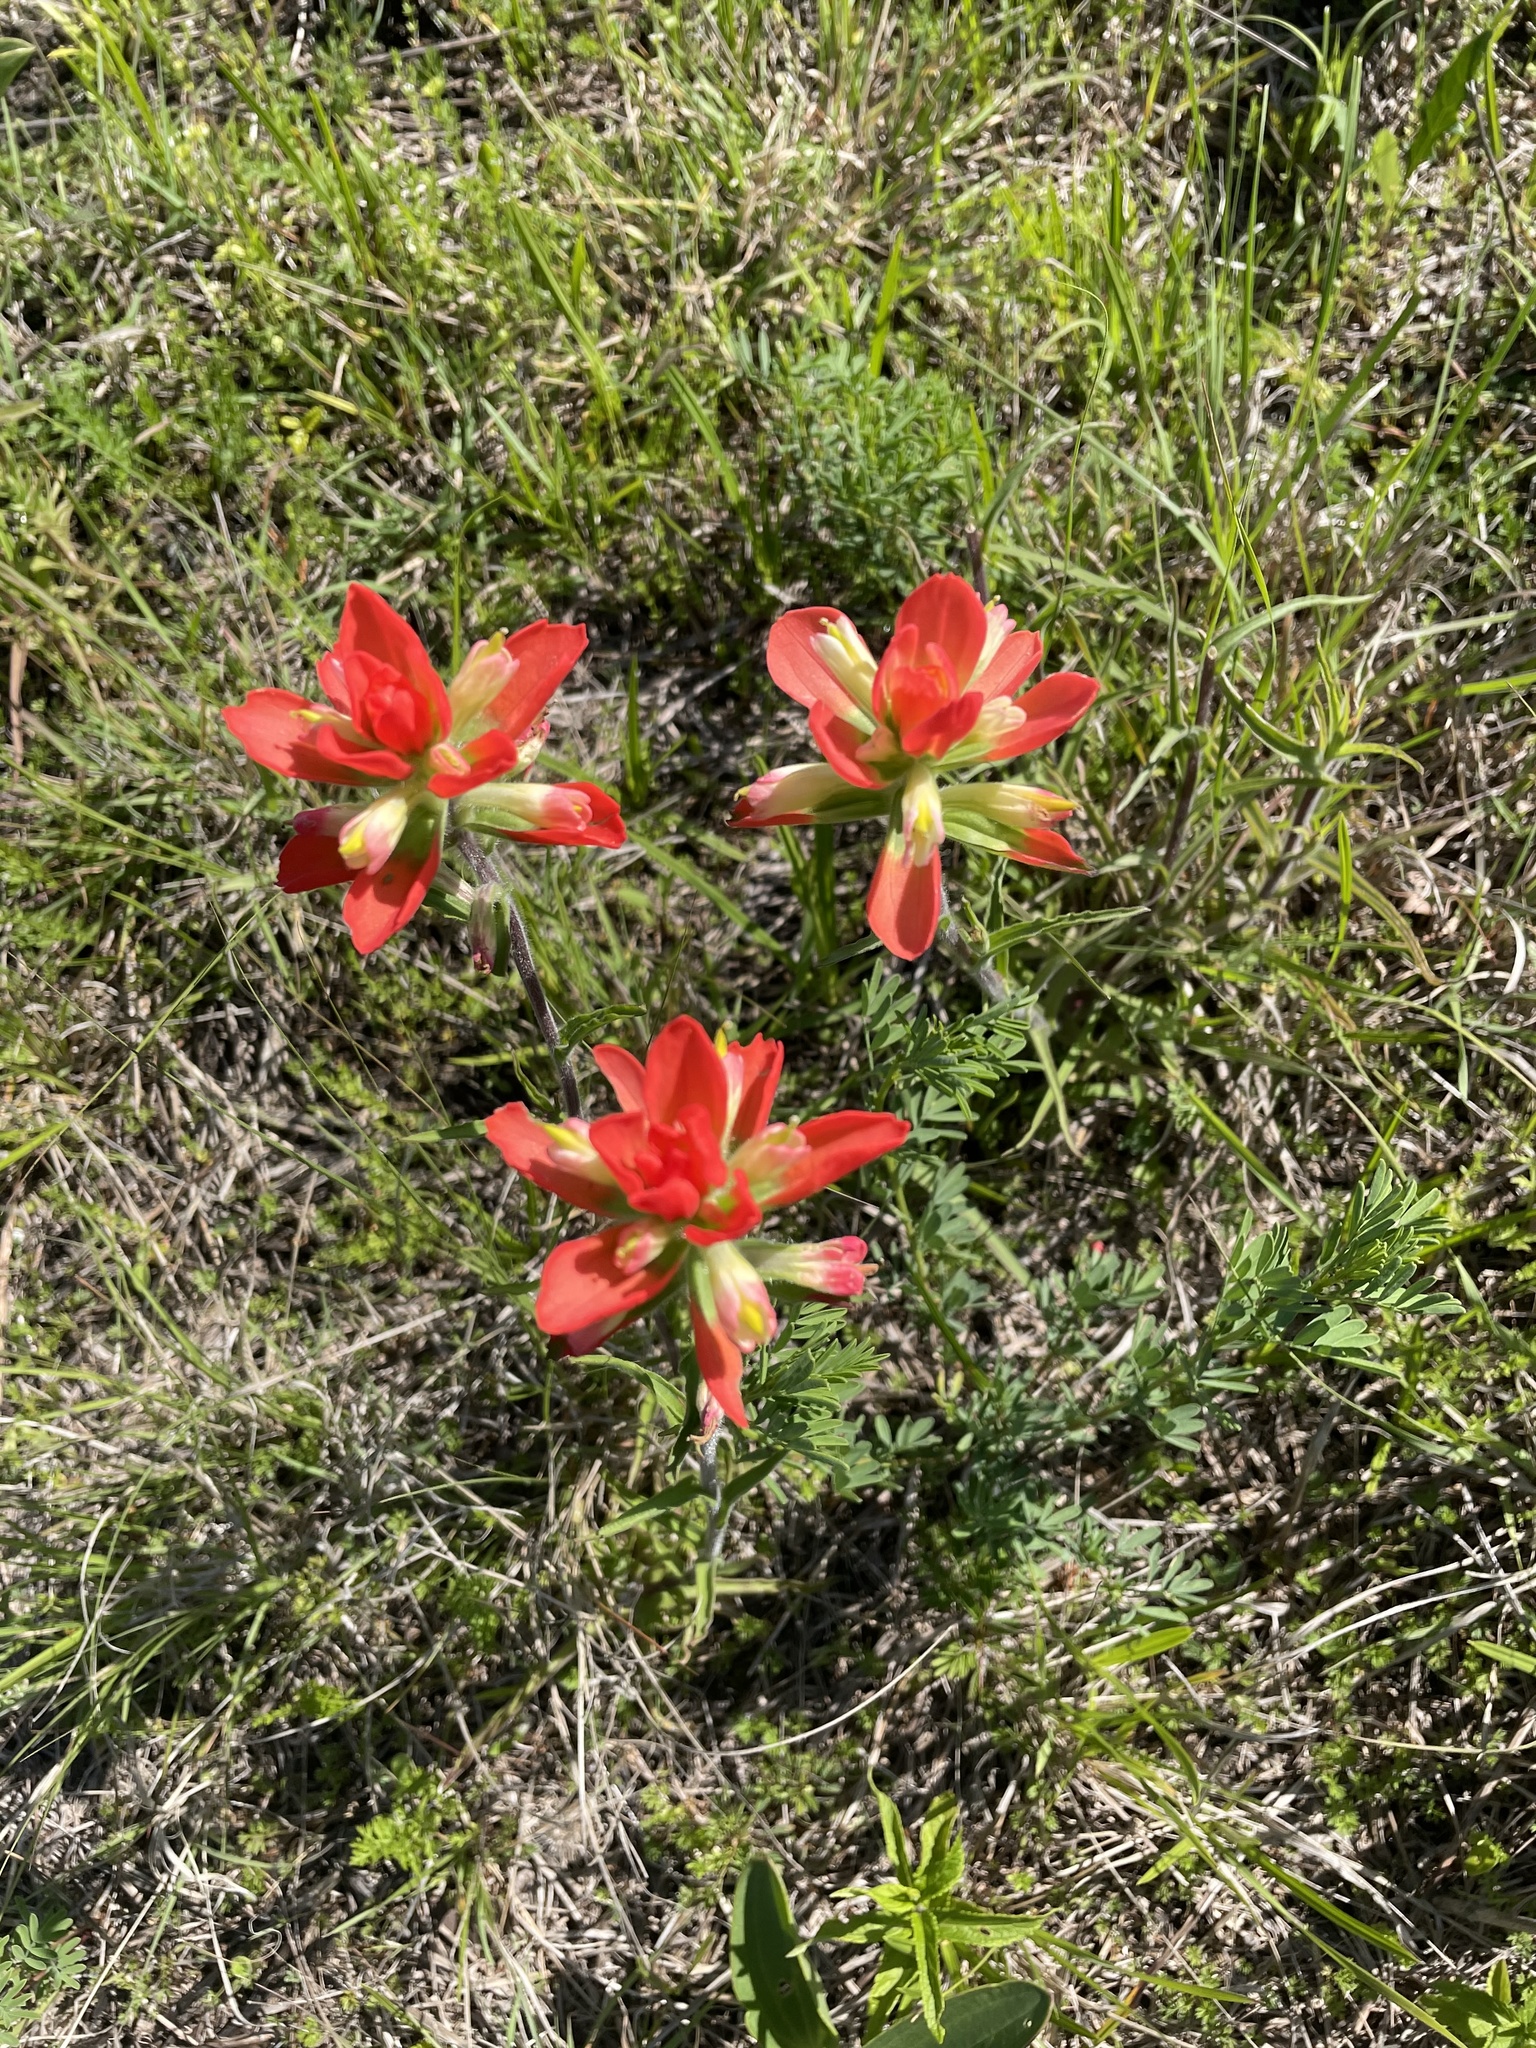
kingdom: Plantae
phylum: Tracheophyta
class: Magnoliopsida
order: Lamiales
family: Orobanchaceae
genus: Castilleja
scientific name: Castilleja indivisa
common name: Texas paintbrush
